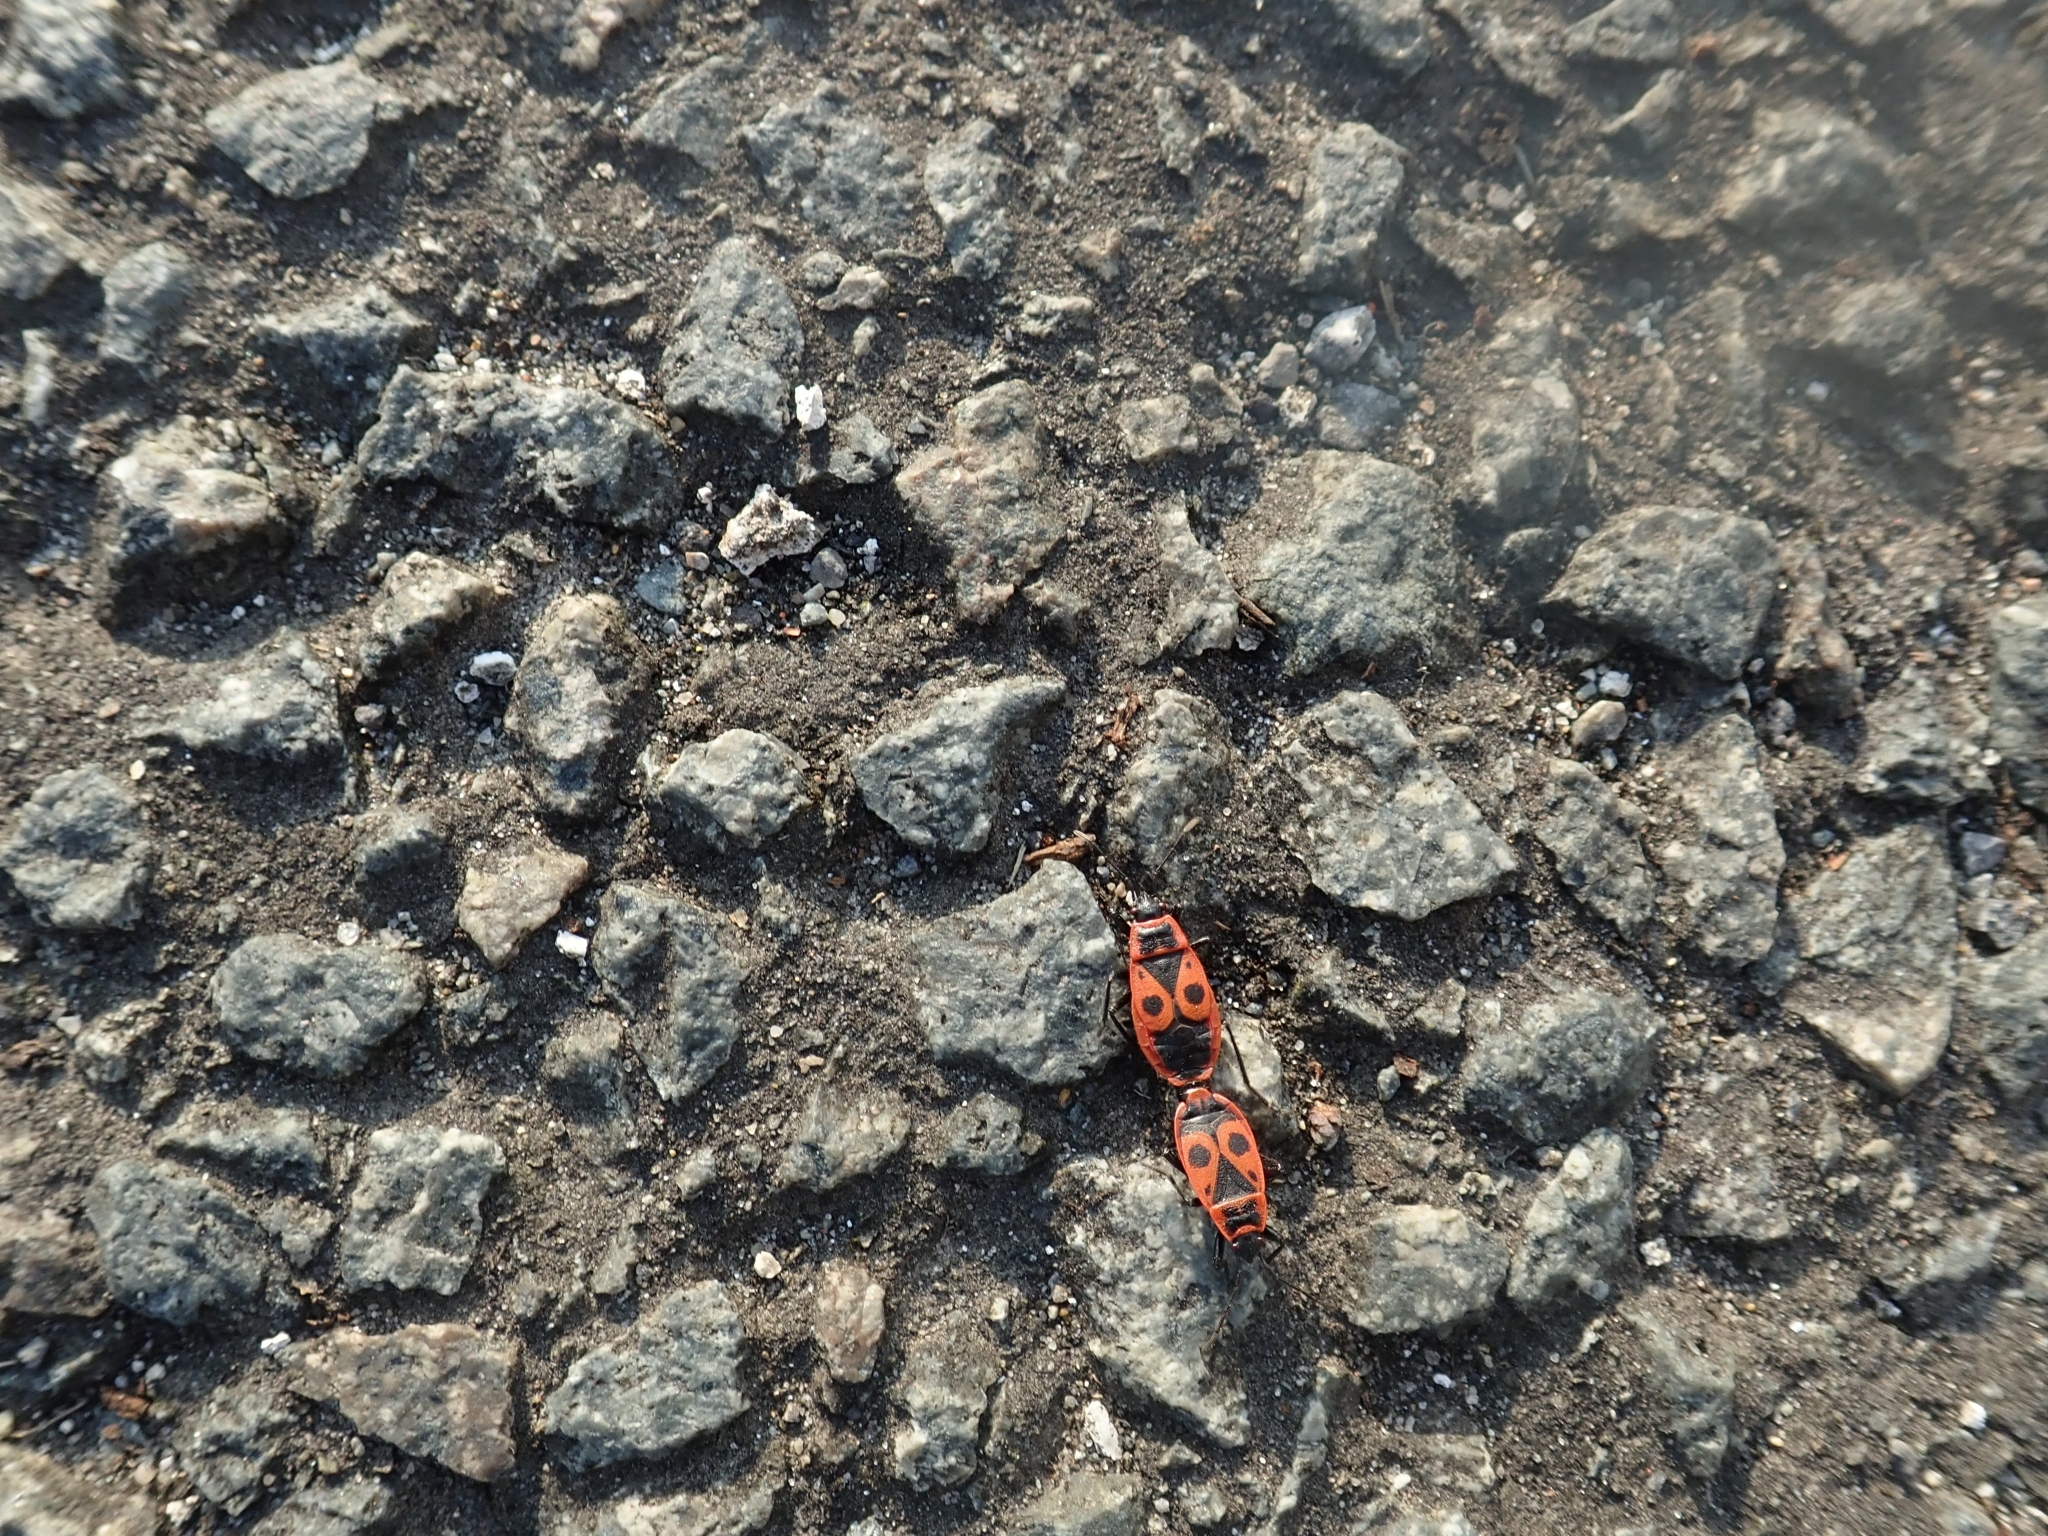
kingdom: Animalia
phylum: Arthropoda
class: Insecta
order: Hemiptera
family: Pyrrhocoridae
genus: Pyrrhocoris
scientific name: Pyrrhocoris apterus
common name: Firebug
